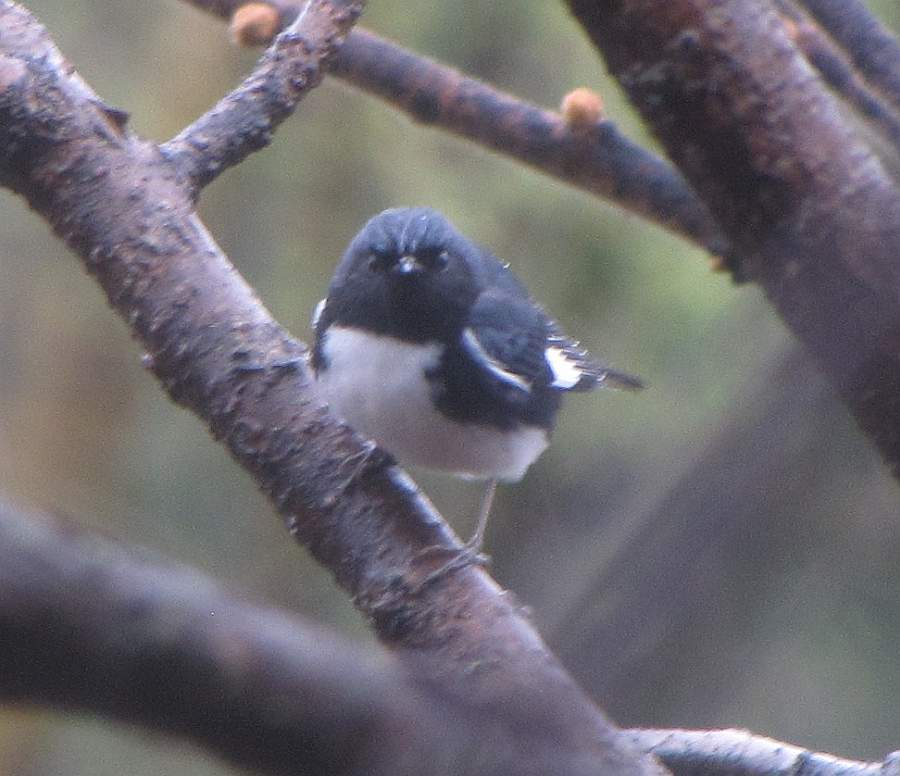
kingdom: Animalia
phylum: Chordata
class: Aves
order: Passeriformes
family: Parulidae
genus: Setophaga
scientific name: Setophaga caerulescens
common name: Black-throated blue warbler
